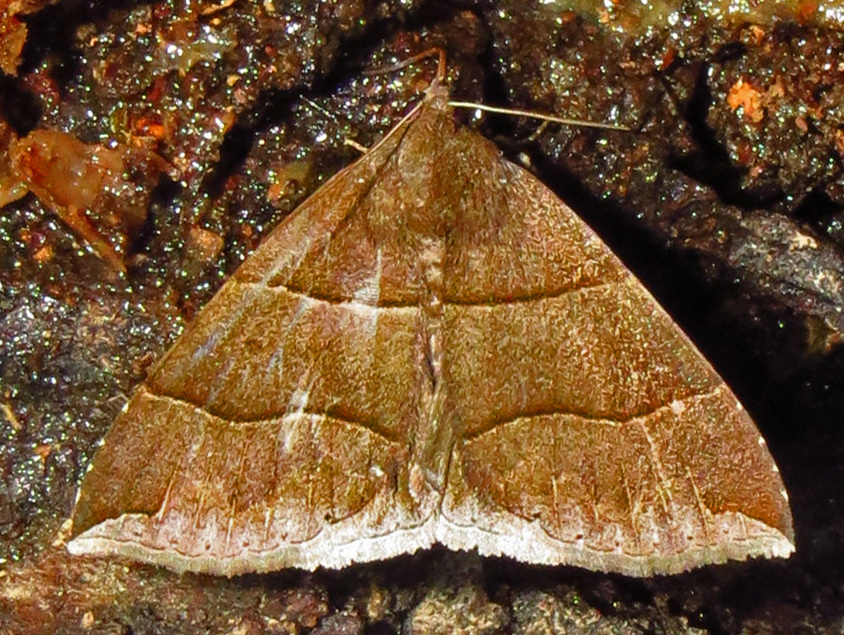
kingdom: Animalia
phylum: Arthropoda
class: Insecta
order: Lepidoptera
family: Erebidae
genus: Parallelia
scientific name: Parallelia bistriaris
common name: Maple looper moth
